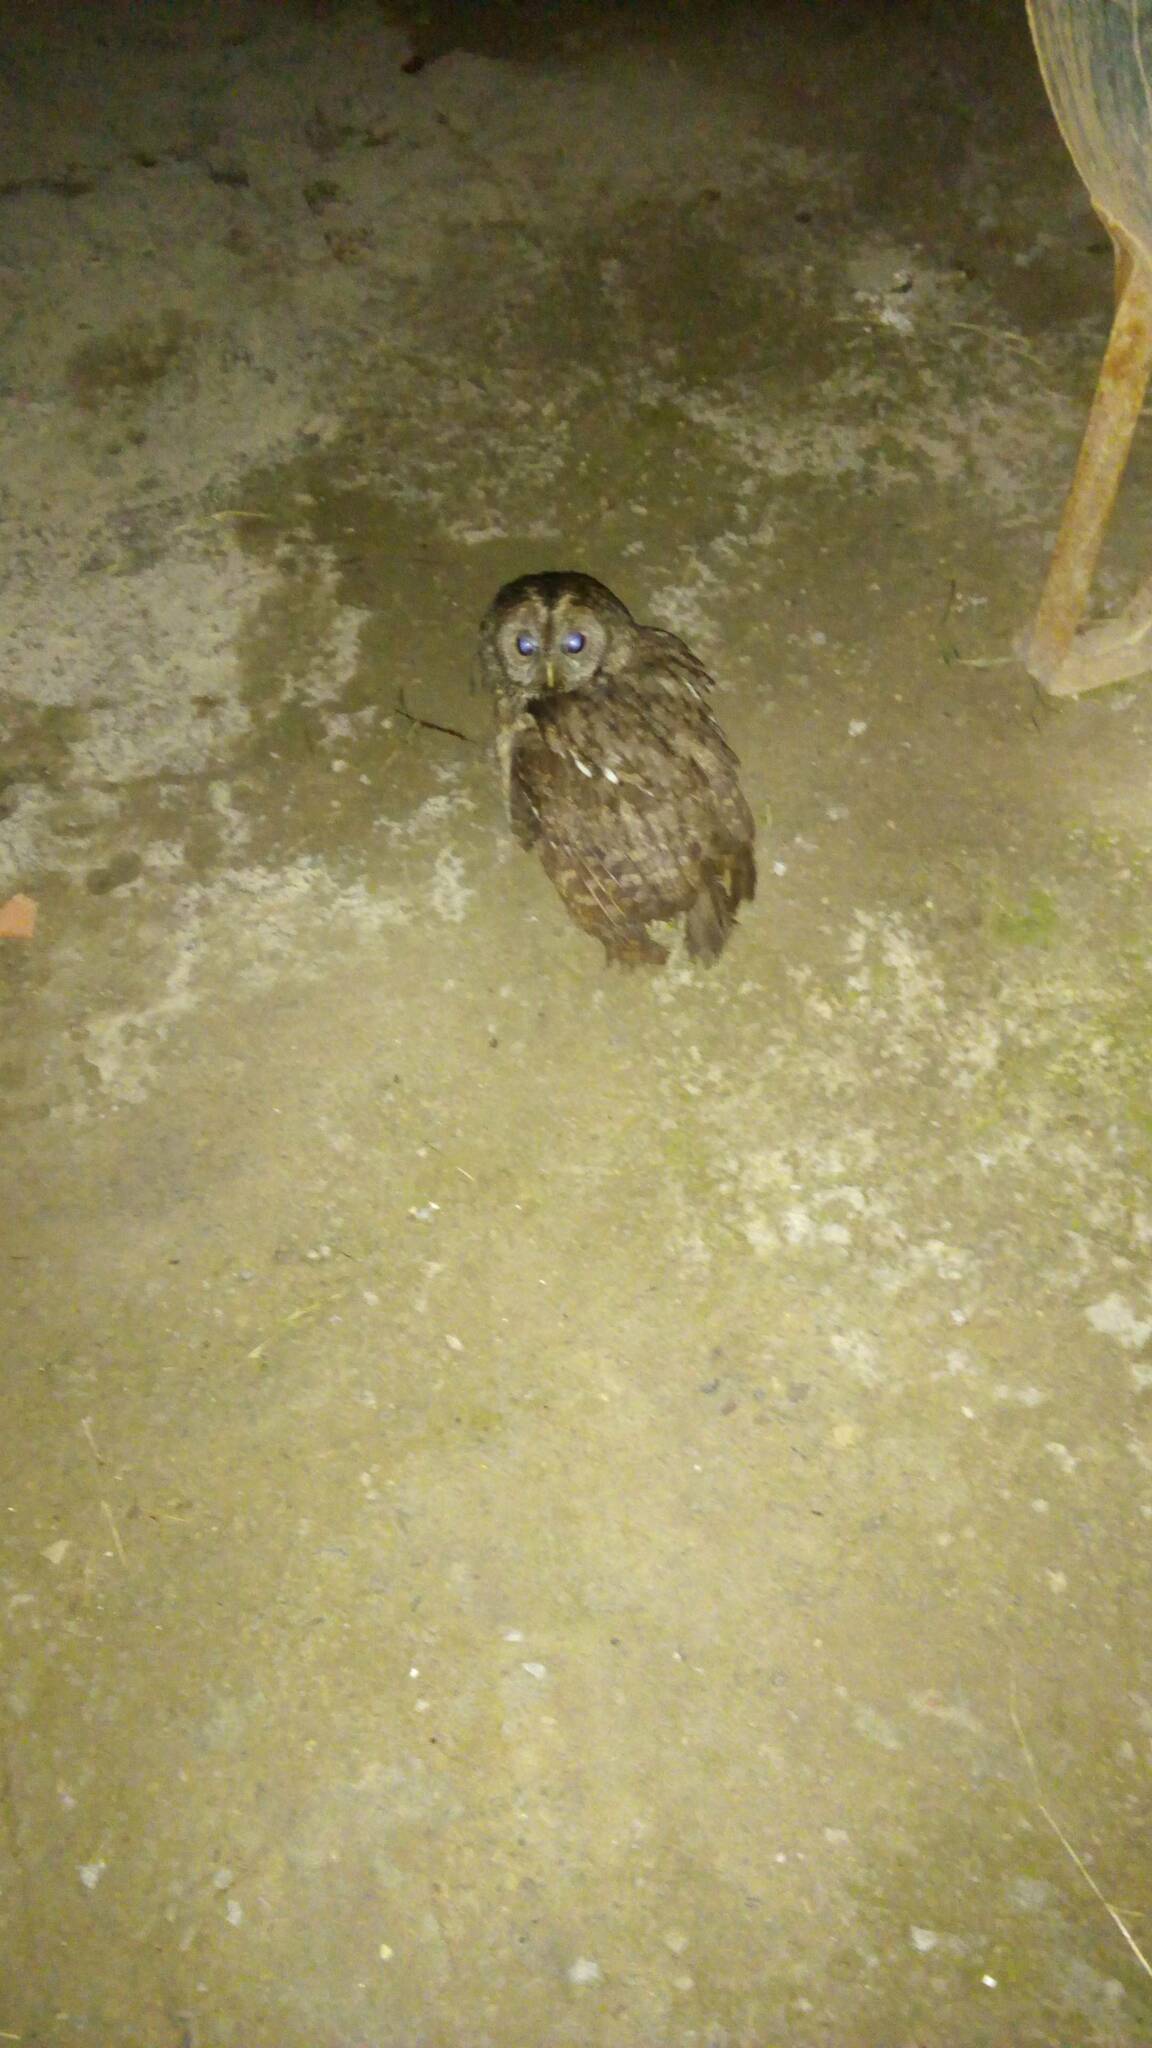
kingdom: Animalia
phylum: Chordata
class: Aves
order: Strigiformes
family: Strigidae
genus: Strix
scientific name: Strix aluco
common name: Tawny owl
